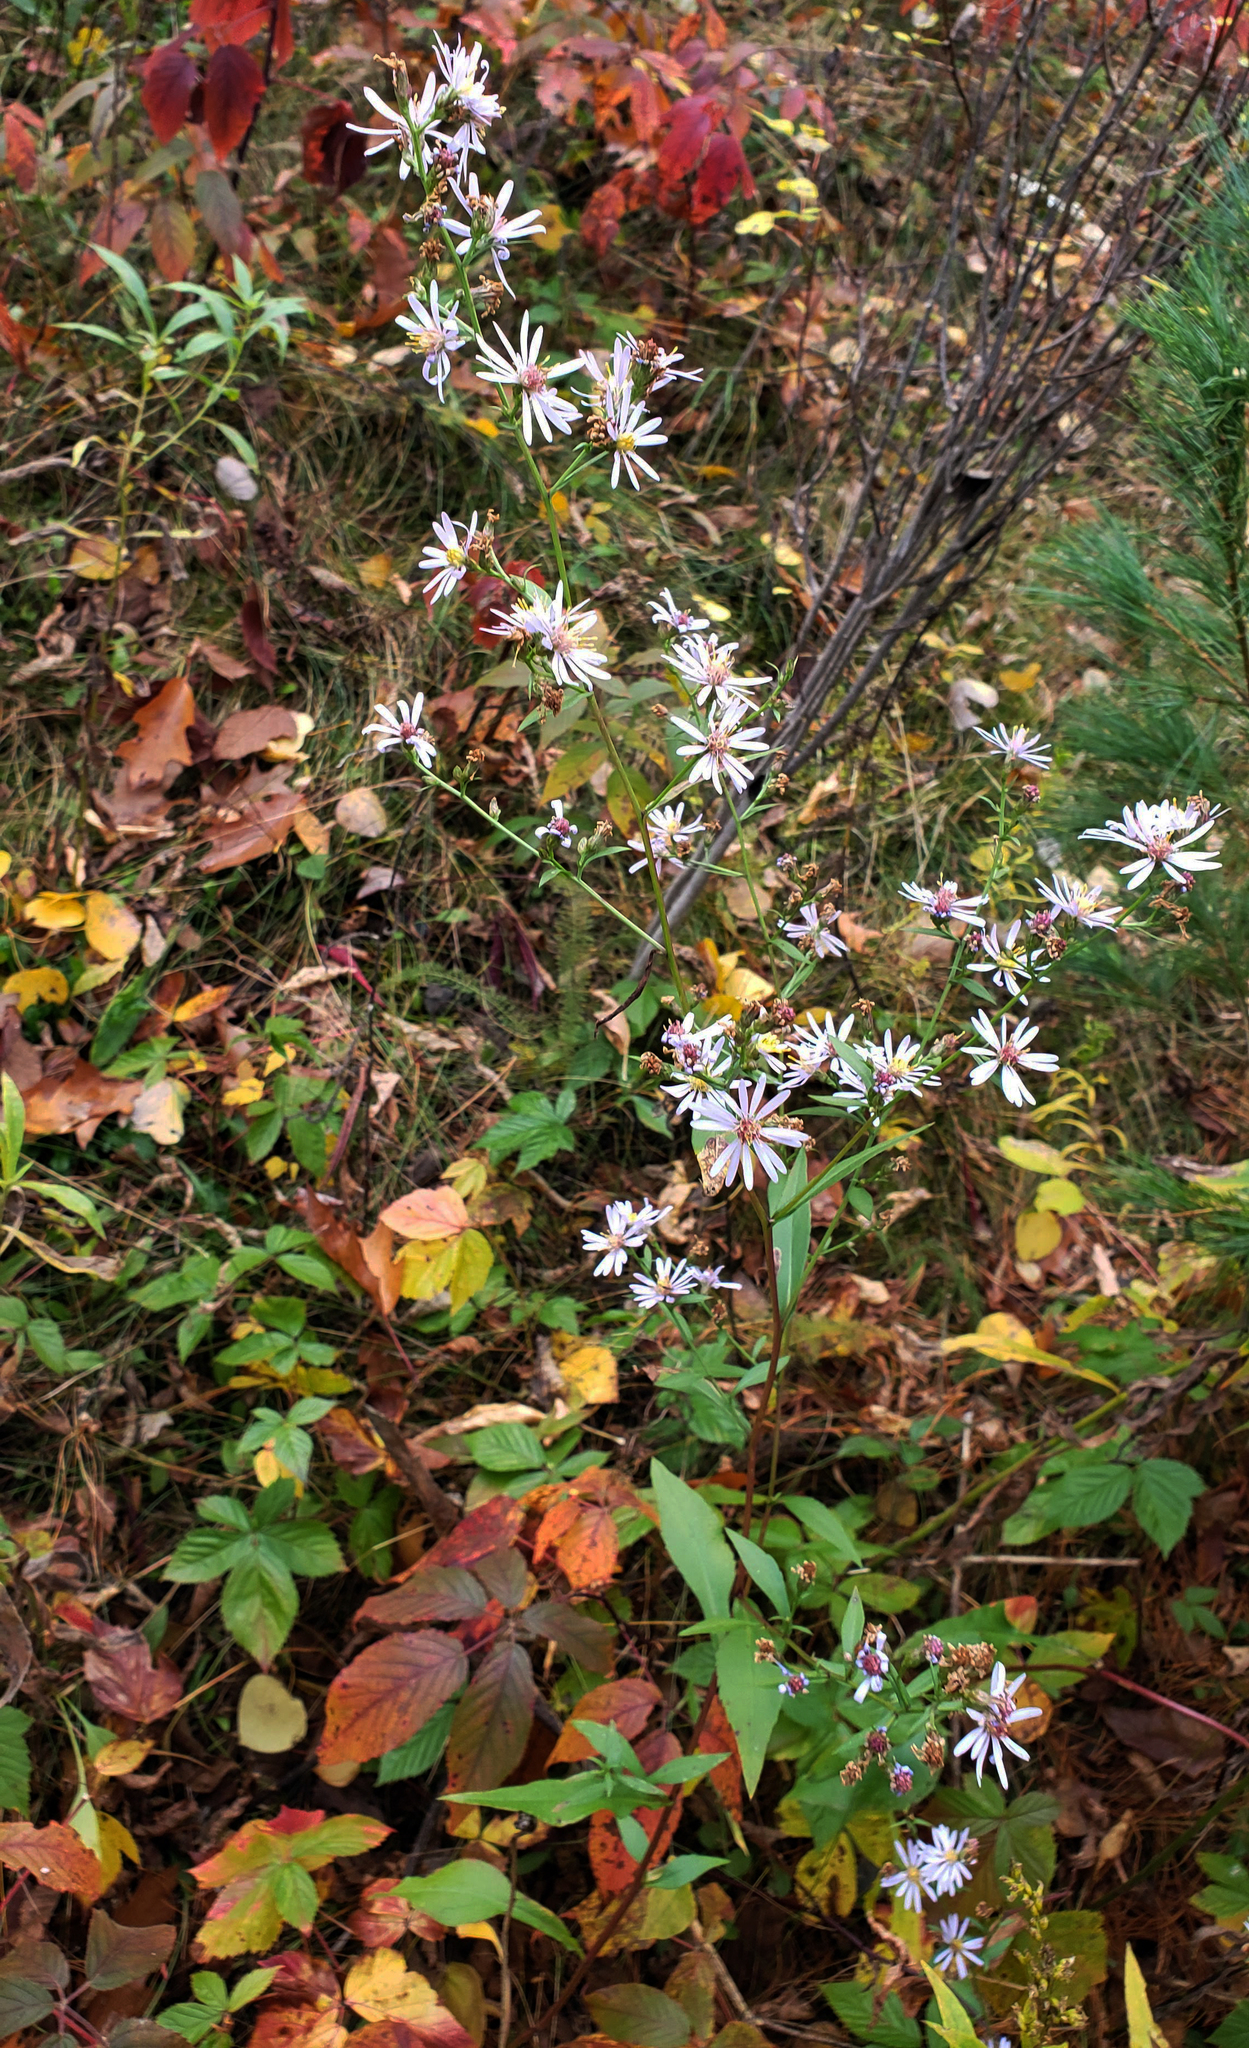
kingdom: Plantae
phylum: Tracheophyta
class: Magnoliopsida
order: Asterales
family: Asteraceae
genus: Symphyotrichum
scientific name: Symphyotrichum ciliolatum
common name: Fringed blue aster
